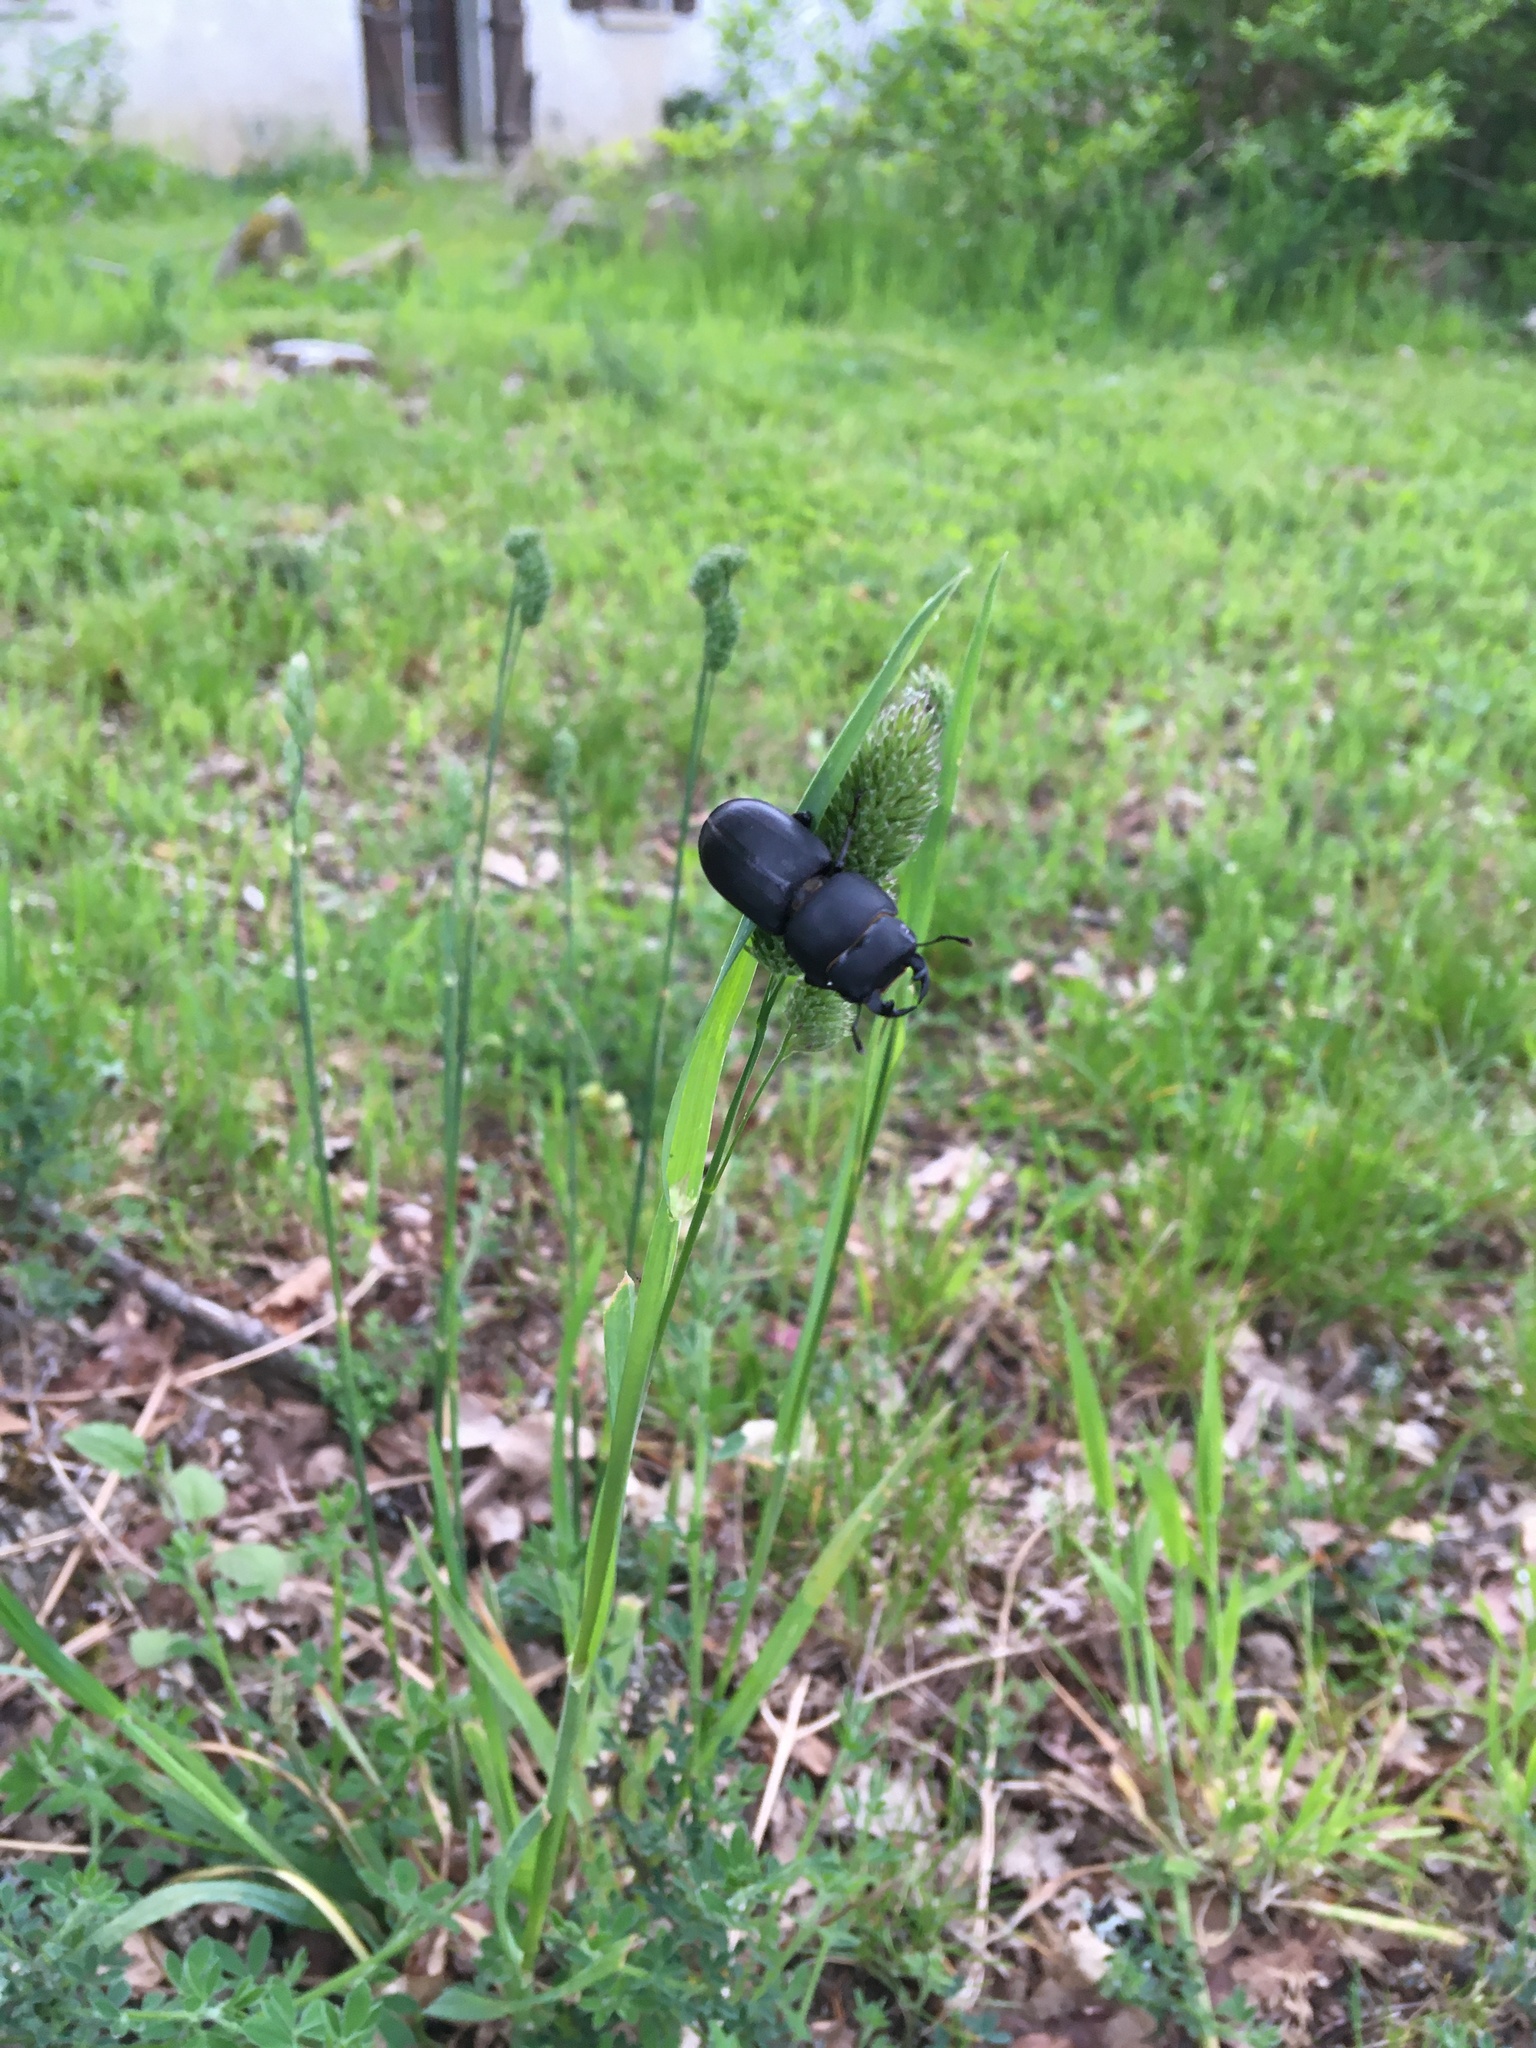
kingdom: Animalia
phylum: Arthropoda
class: Insecta
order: Coleoptera
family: Lucanidae
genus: Dorcus
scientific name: Dorcus parallelipipedus
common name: Lesser stag beetle
